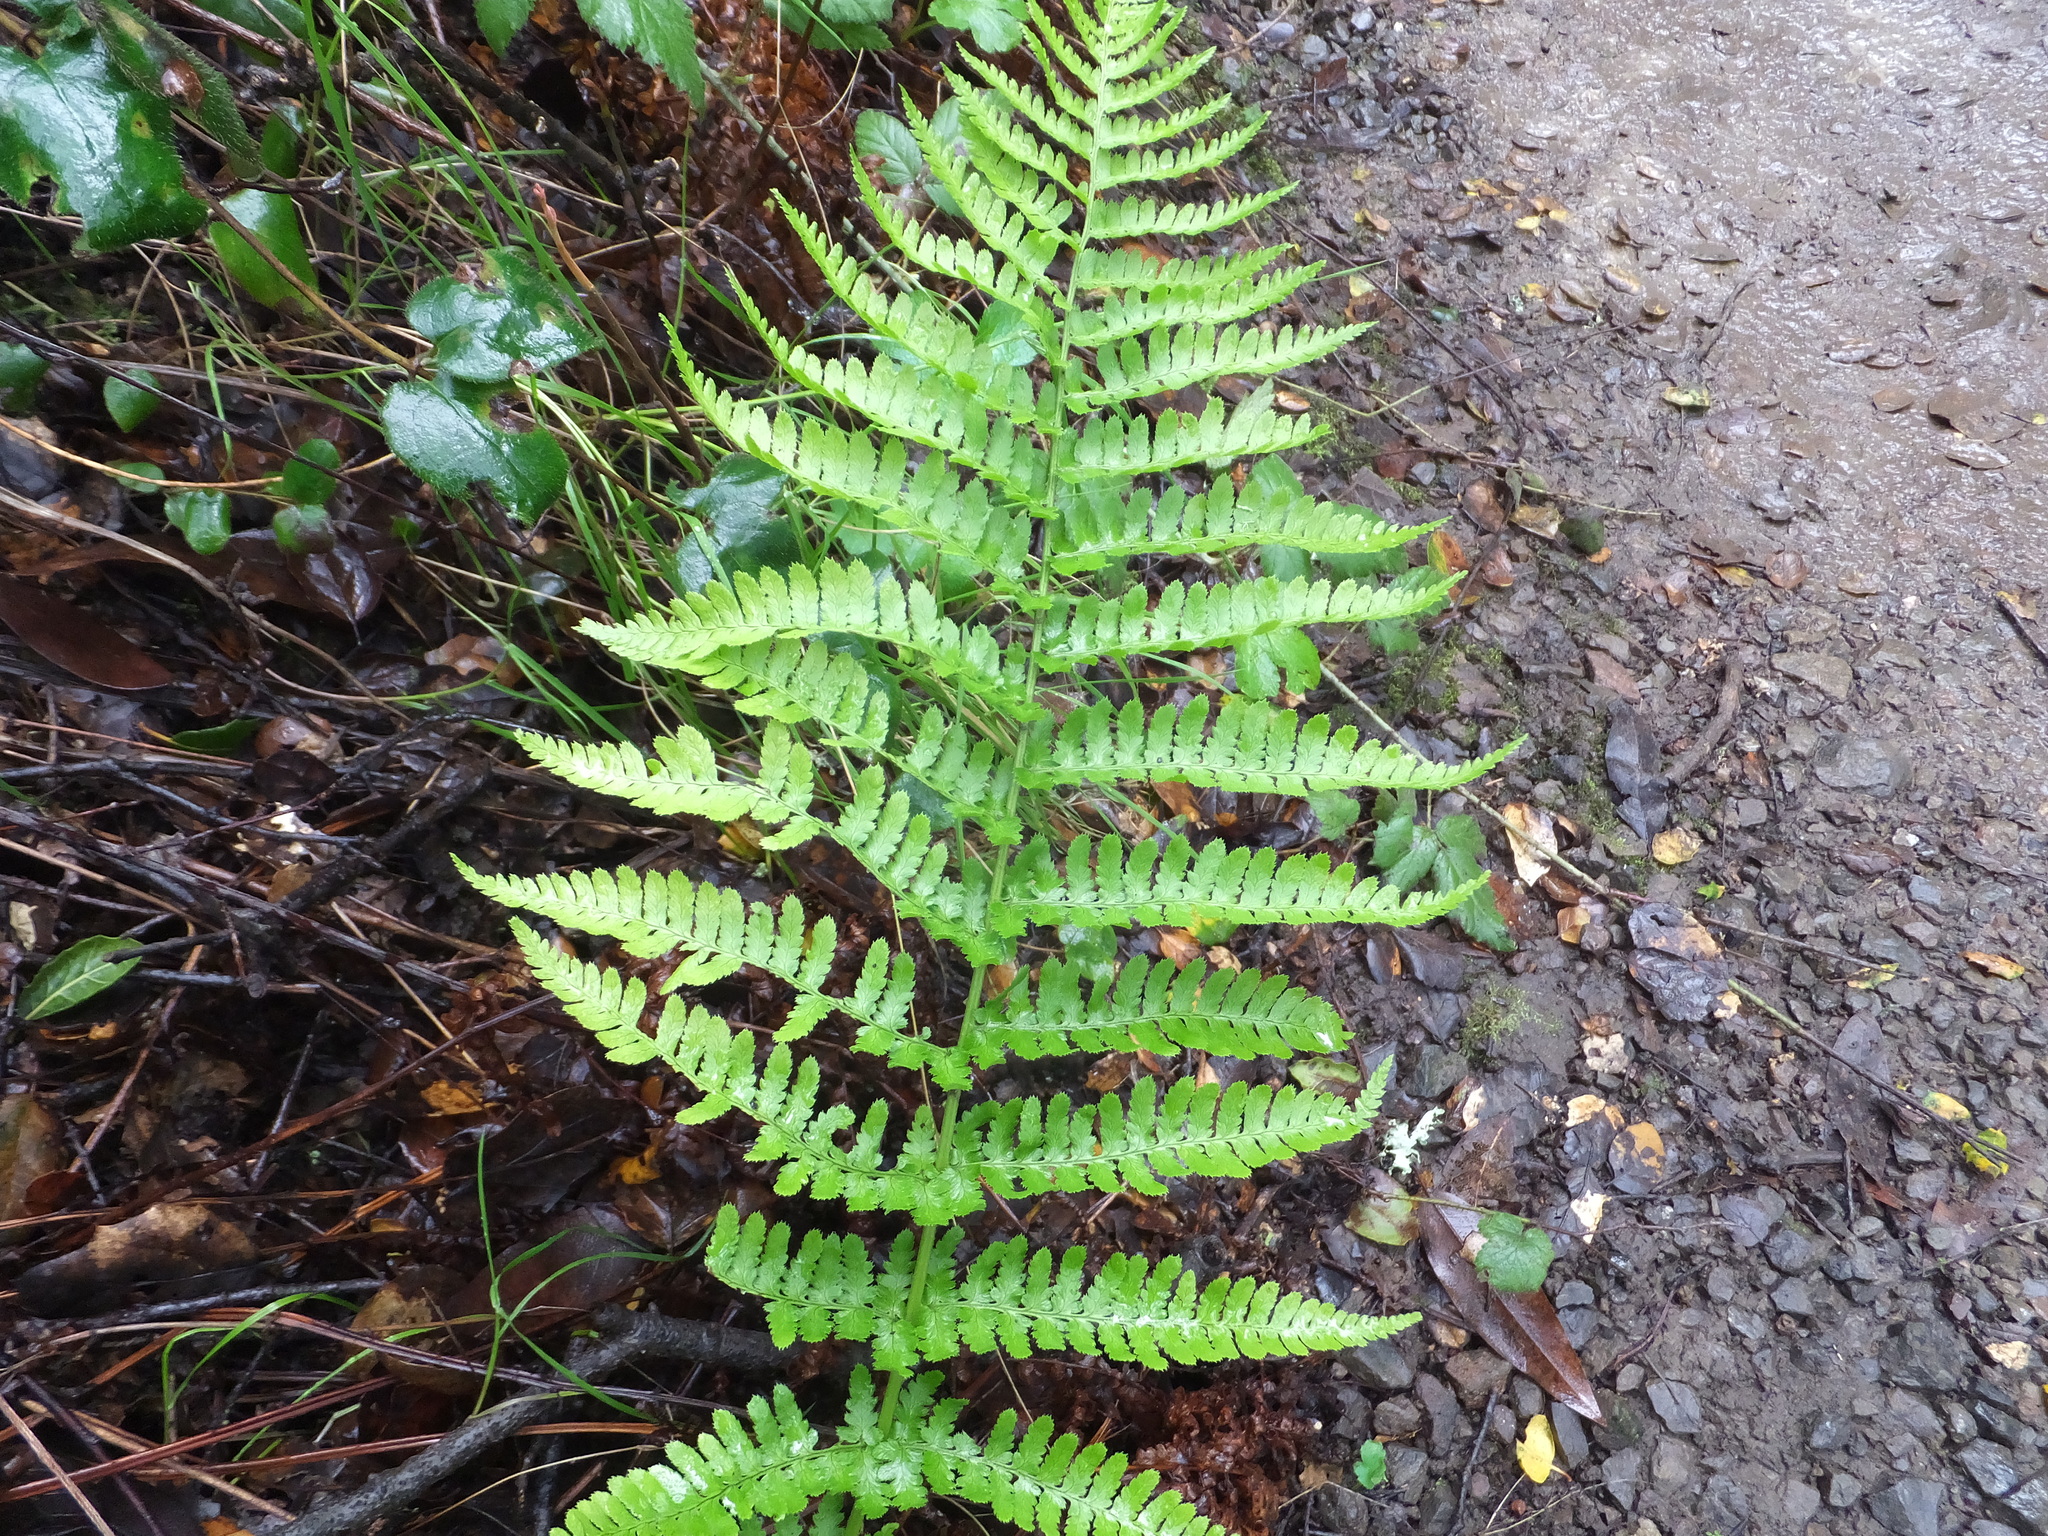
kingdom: Plantae
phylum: Tracheophyta
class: Polypodiopsida
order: Polypodiales
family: Dryopteridaceae
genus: Dryopteris
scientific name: Dryopteris arguta
